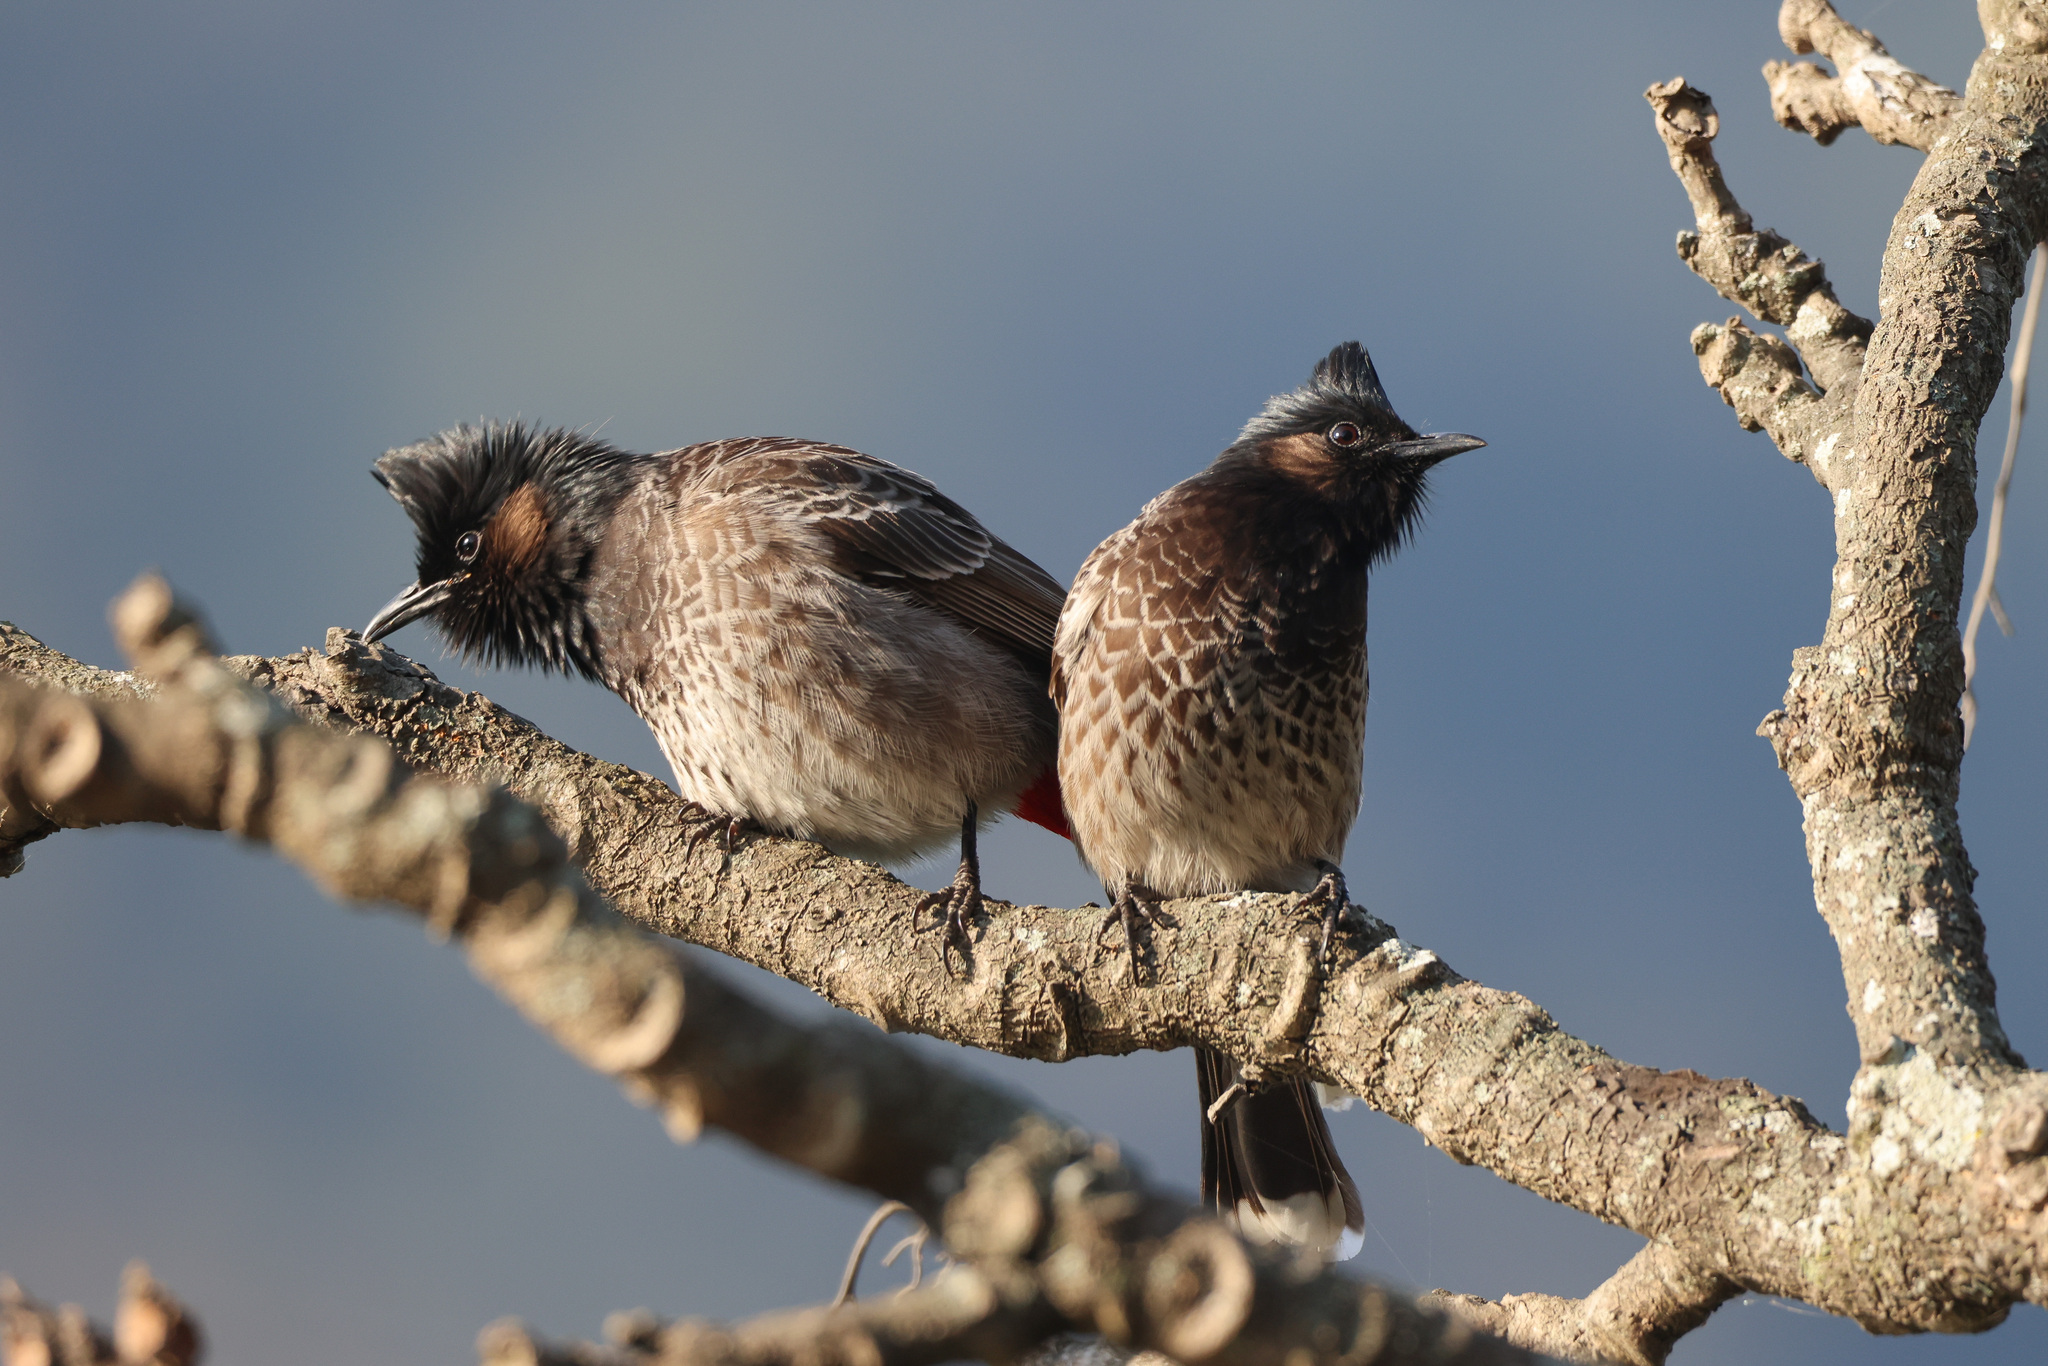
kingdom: Animalia
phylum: Chordata
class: Aves
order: Passeriformes
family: Pycnonotidae
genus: Pycnonotus
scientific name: Pycnonotus cafer
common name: Red-vented bulbul
